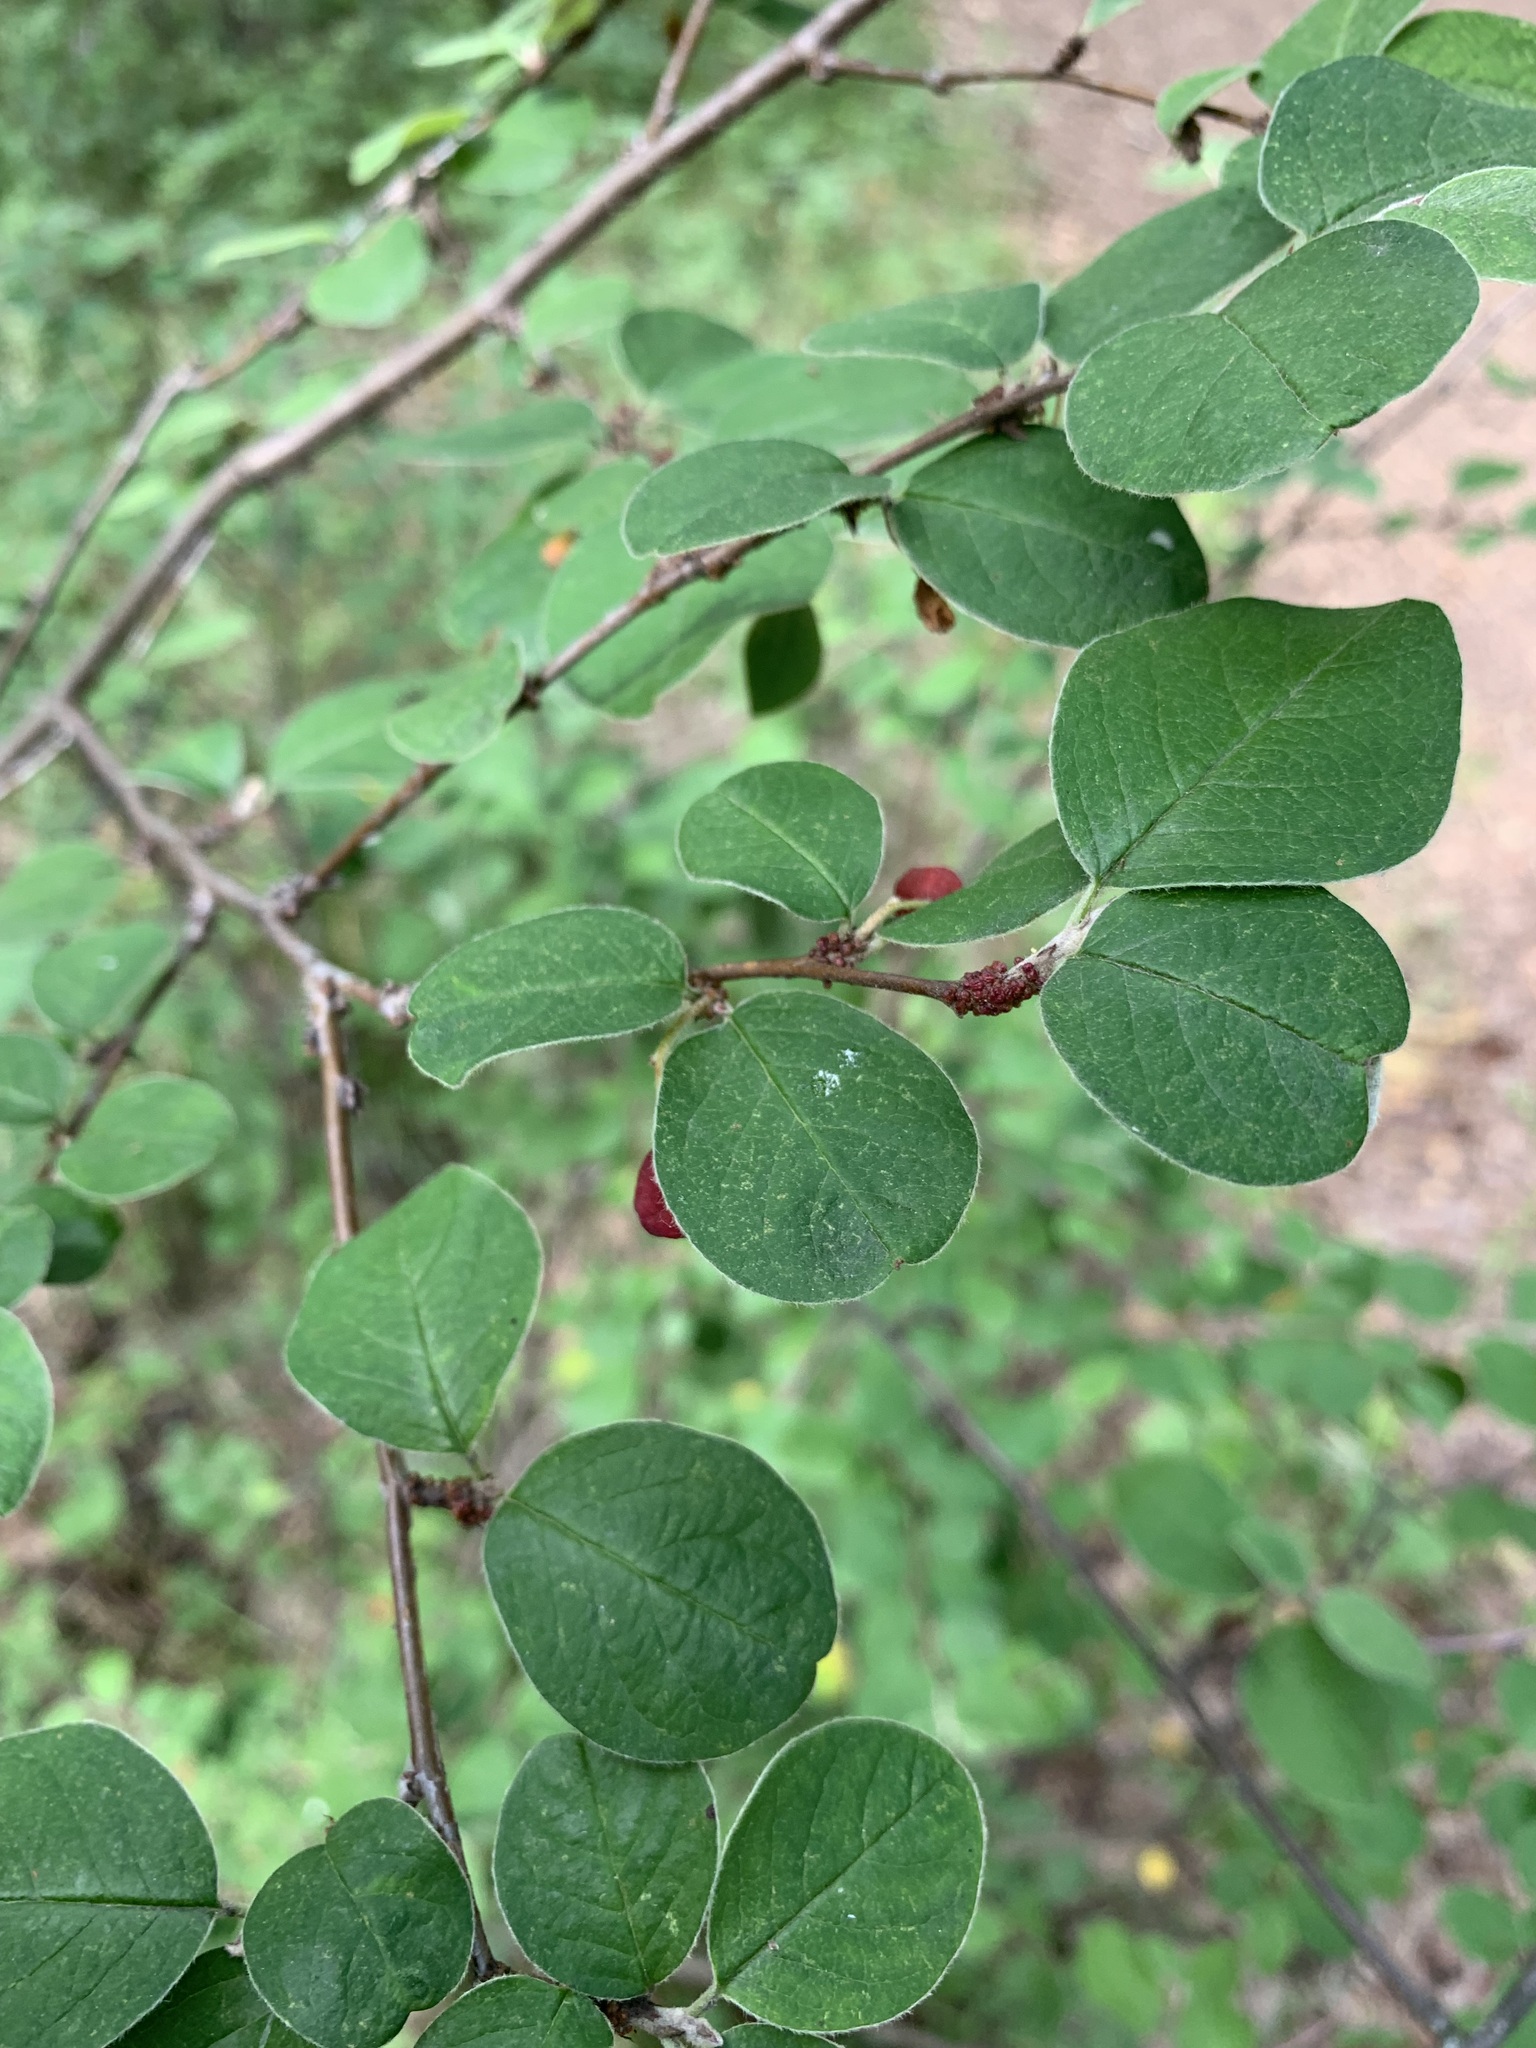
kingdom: Plantae
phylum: Tracheophyta
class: Magnoliopsida
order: Rosales
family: Rosaceae
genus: Cotoneaster
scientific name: Cotoneaster melanocarpus
